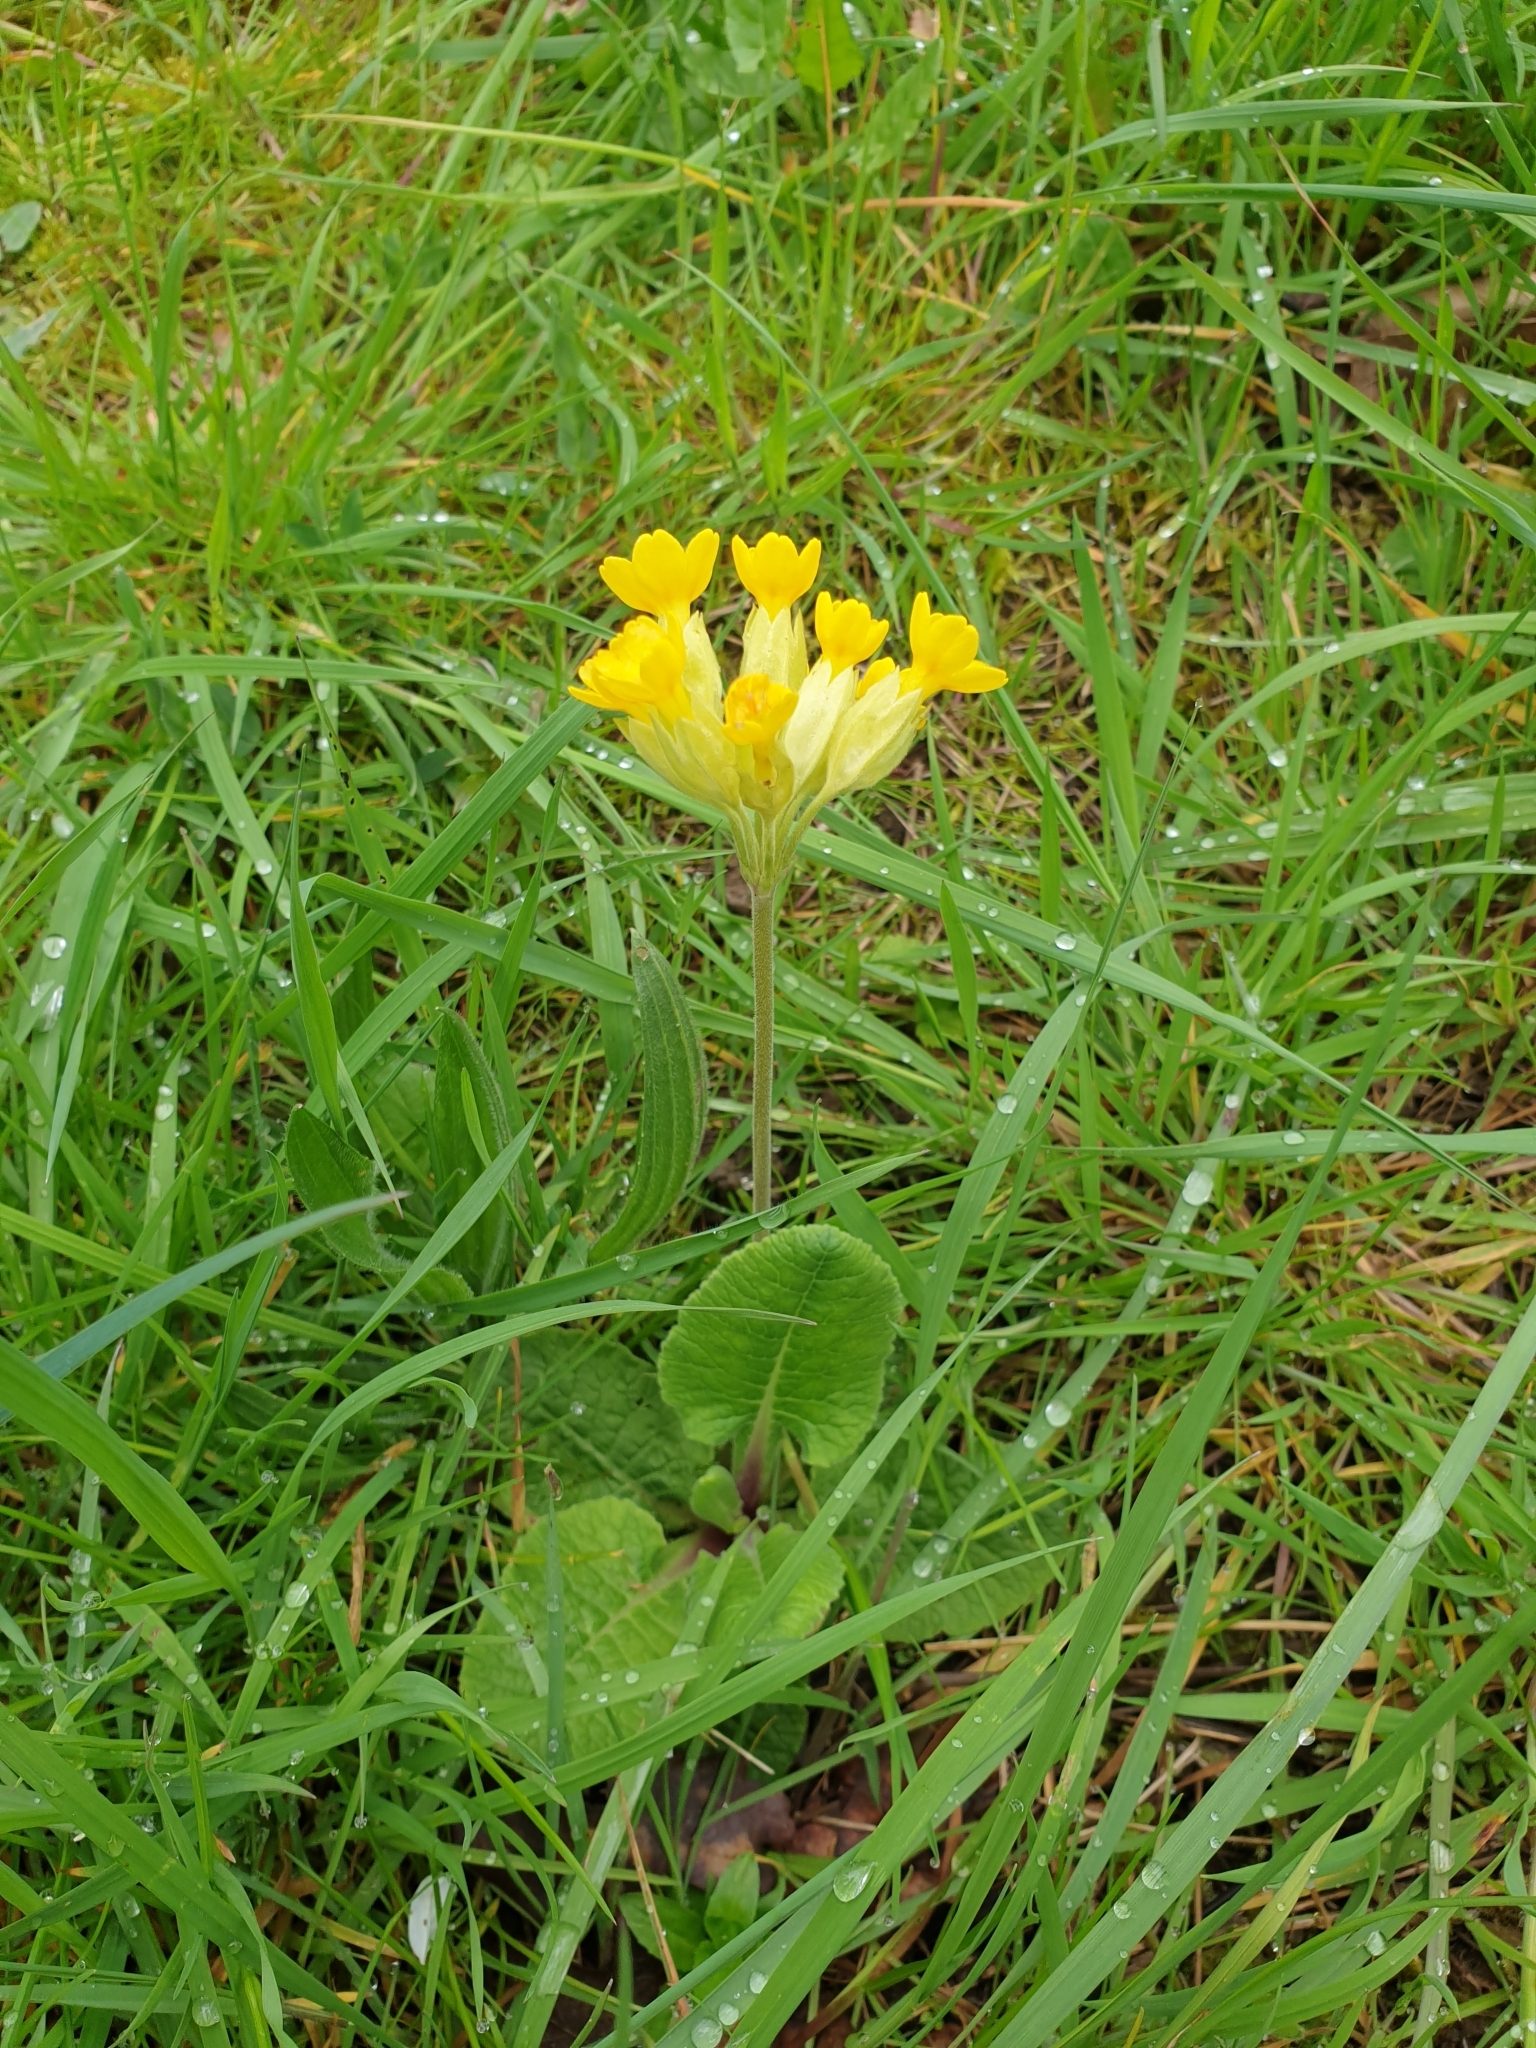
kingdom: Plantae
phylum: Tracheophyta
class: Magnoliopsida
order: Ericales
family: Primulaceae
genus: Primula
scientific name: Primula veris
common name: Cowslip
